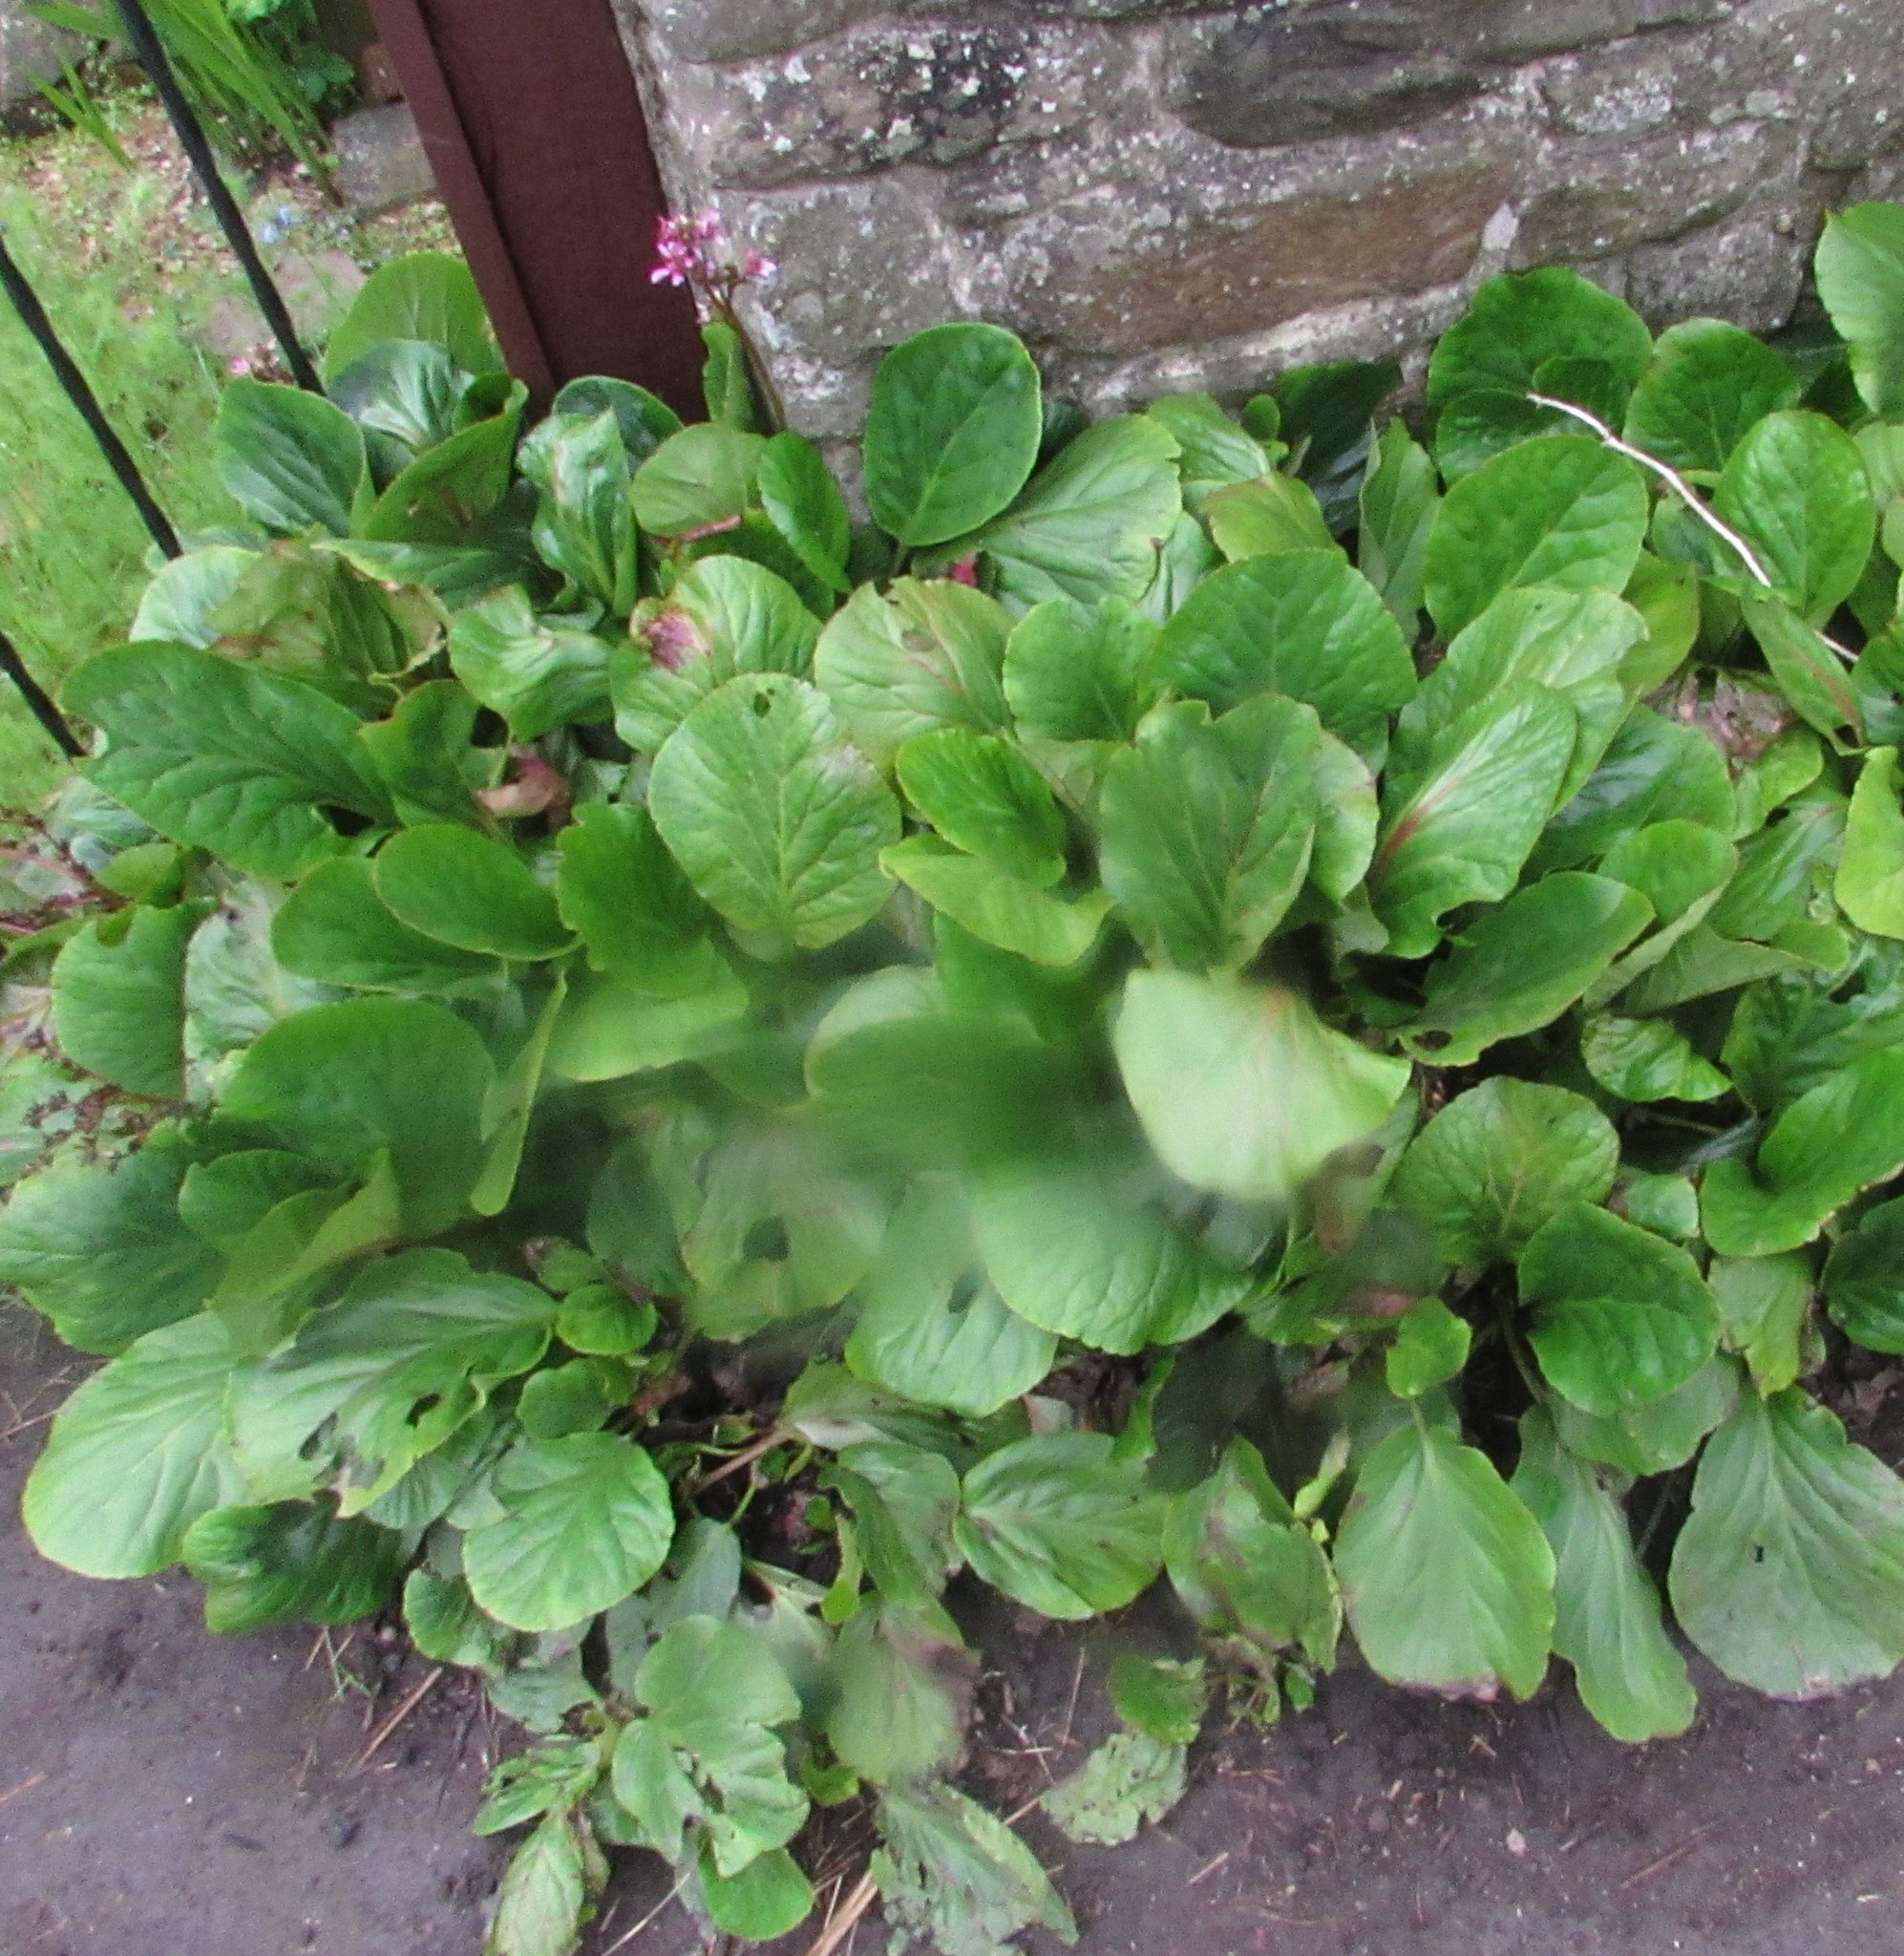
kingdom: Plantae
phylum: Tracheophyta
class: Magnoliopsida
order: Saxifragales
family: Saxifragaceae
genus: Bergenia
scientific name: Bergenia crassifolia
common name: Elephant-ears
